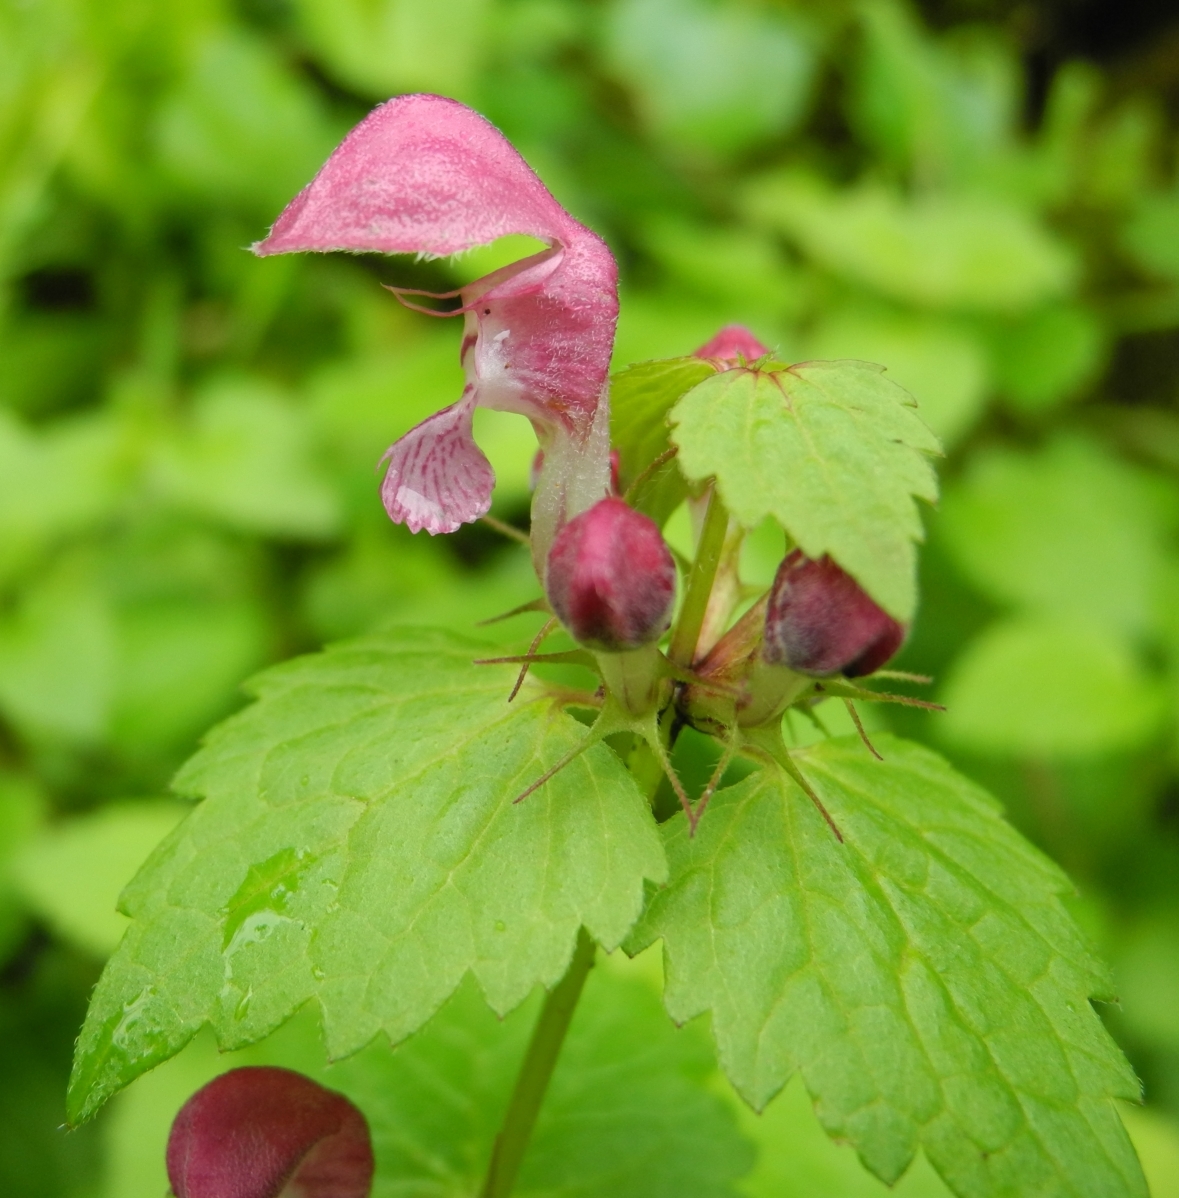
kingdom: Plantae
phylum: Tracheophyta
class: Magnoliopsida
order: Lamiales
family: Lamiaceae
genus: Lamium
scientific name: Lamium maculatum
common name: Spotted dead-nettle
